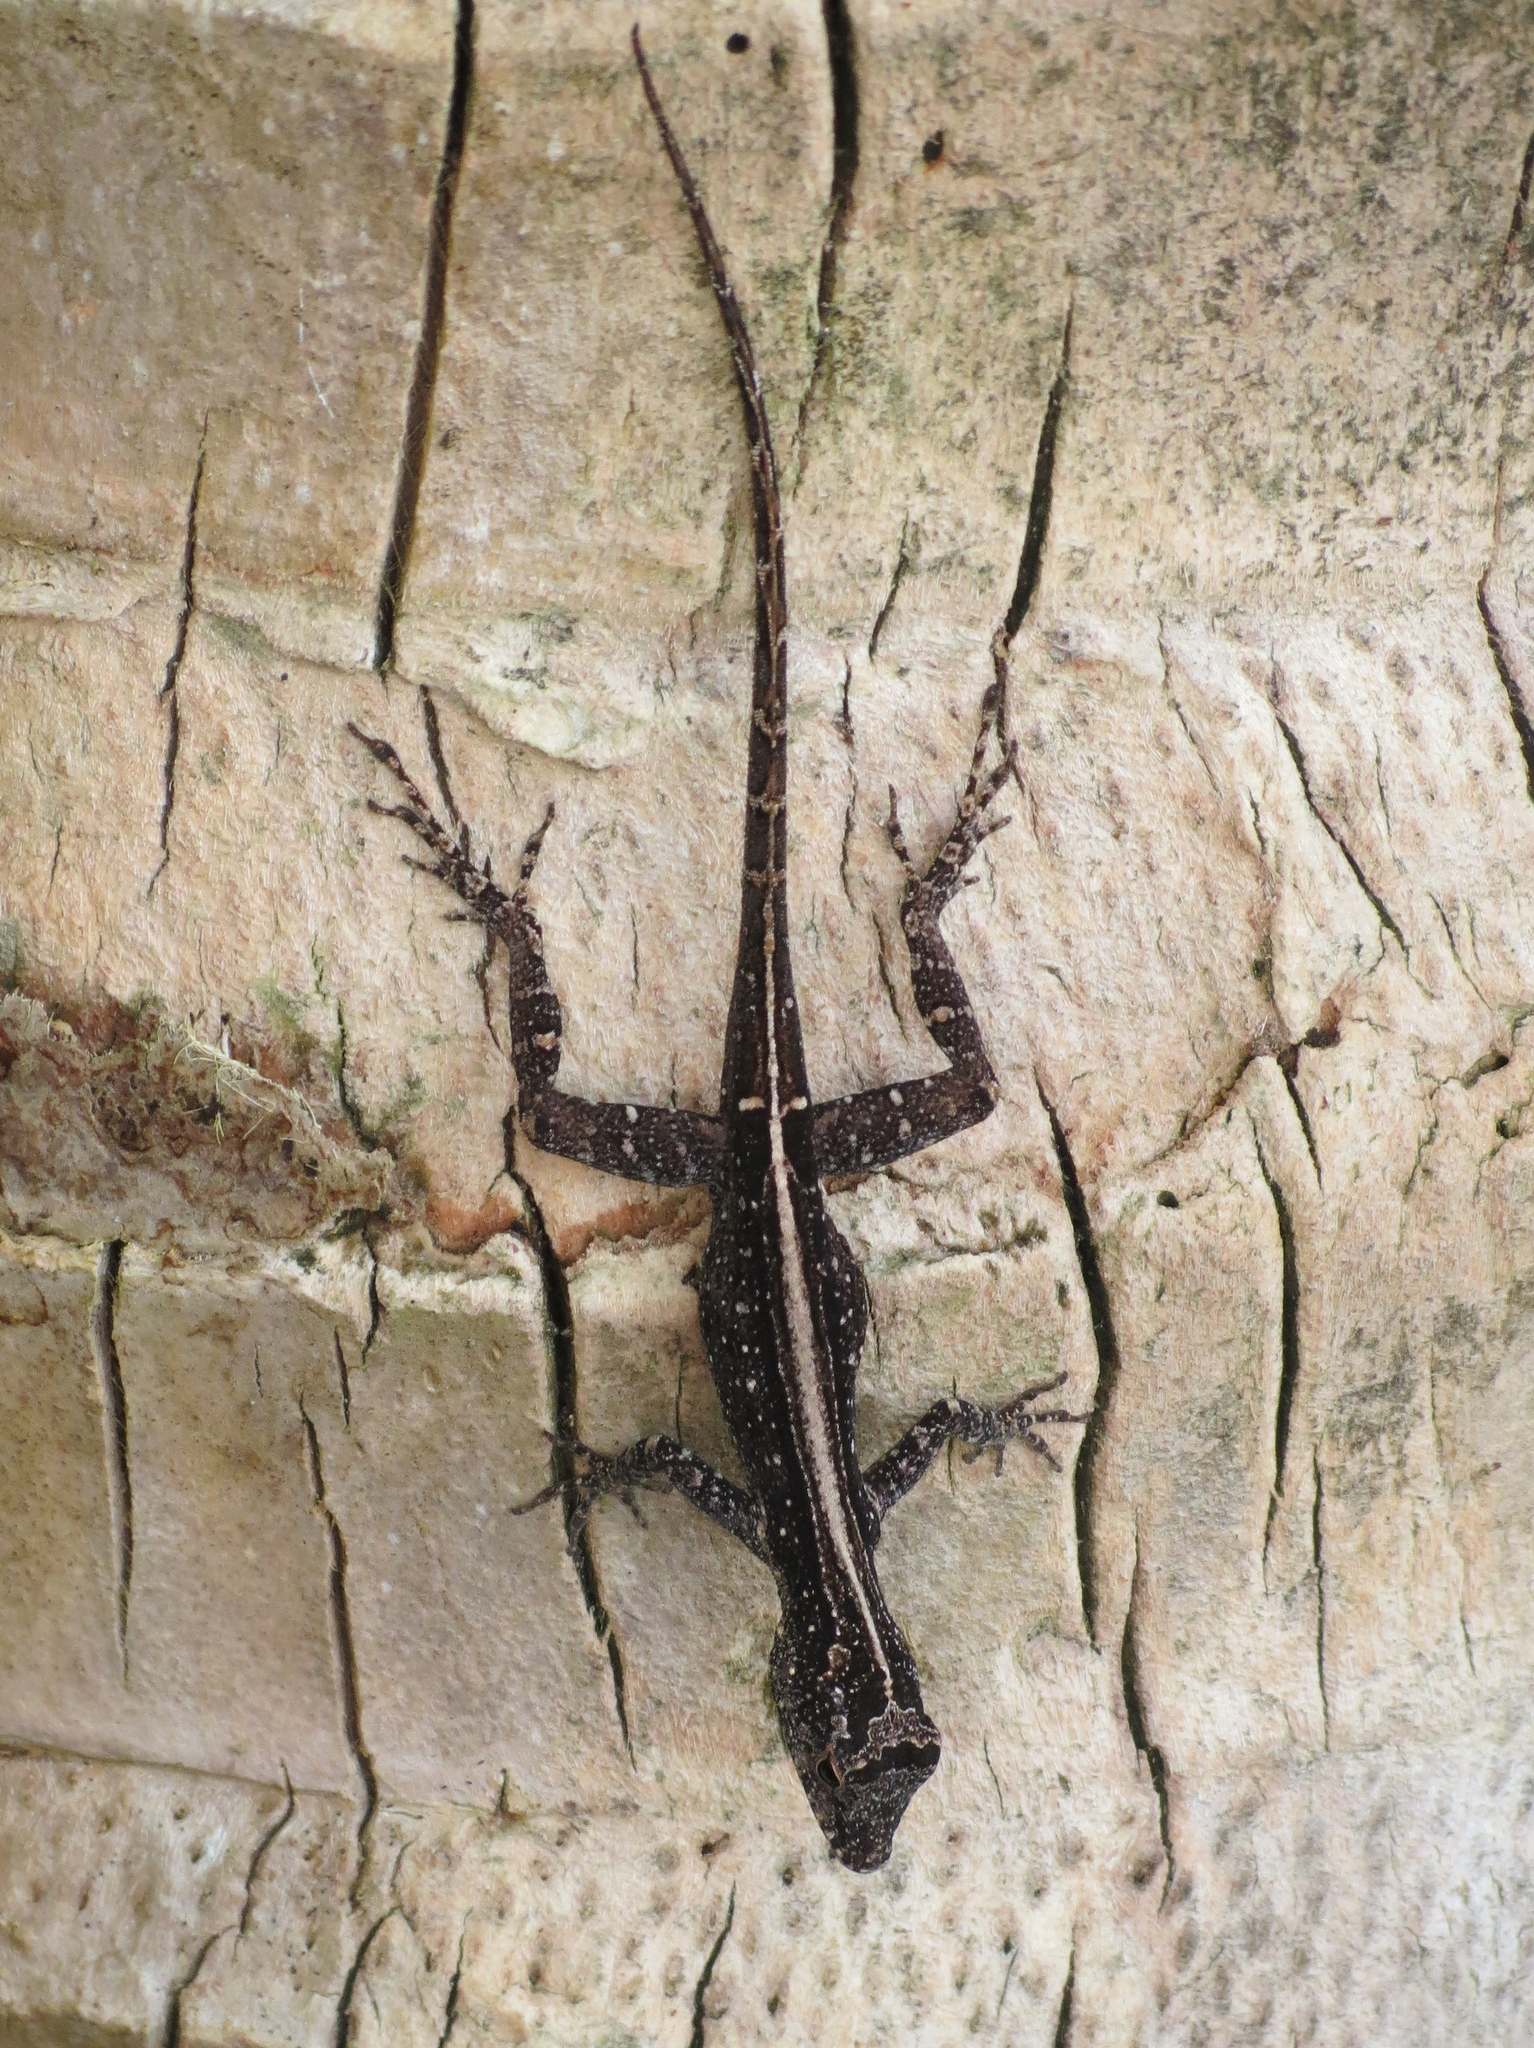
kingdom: Animalia
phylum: Chordata
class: Squamata
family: Dactyloidae
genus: Anolis
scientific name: Anolis cristatellus
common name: Crested anole
